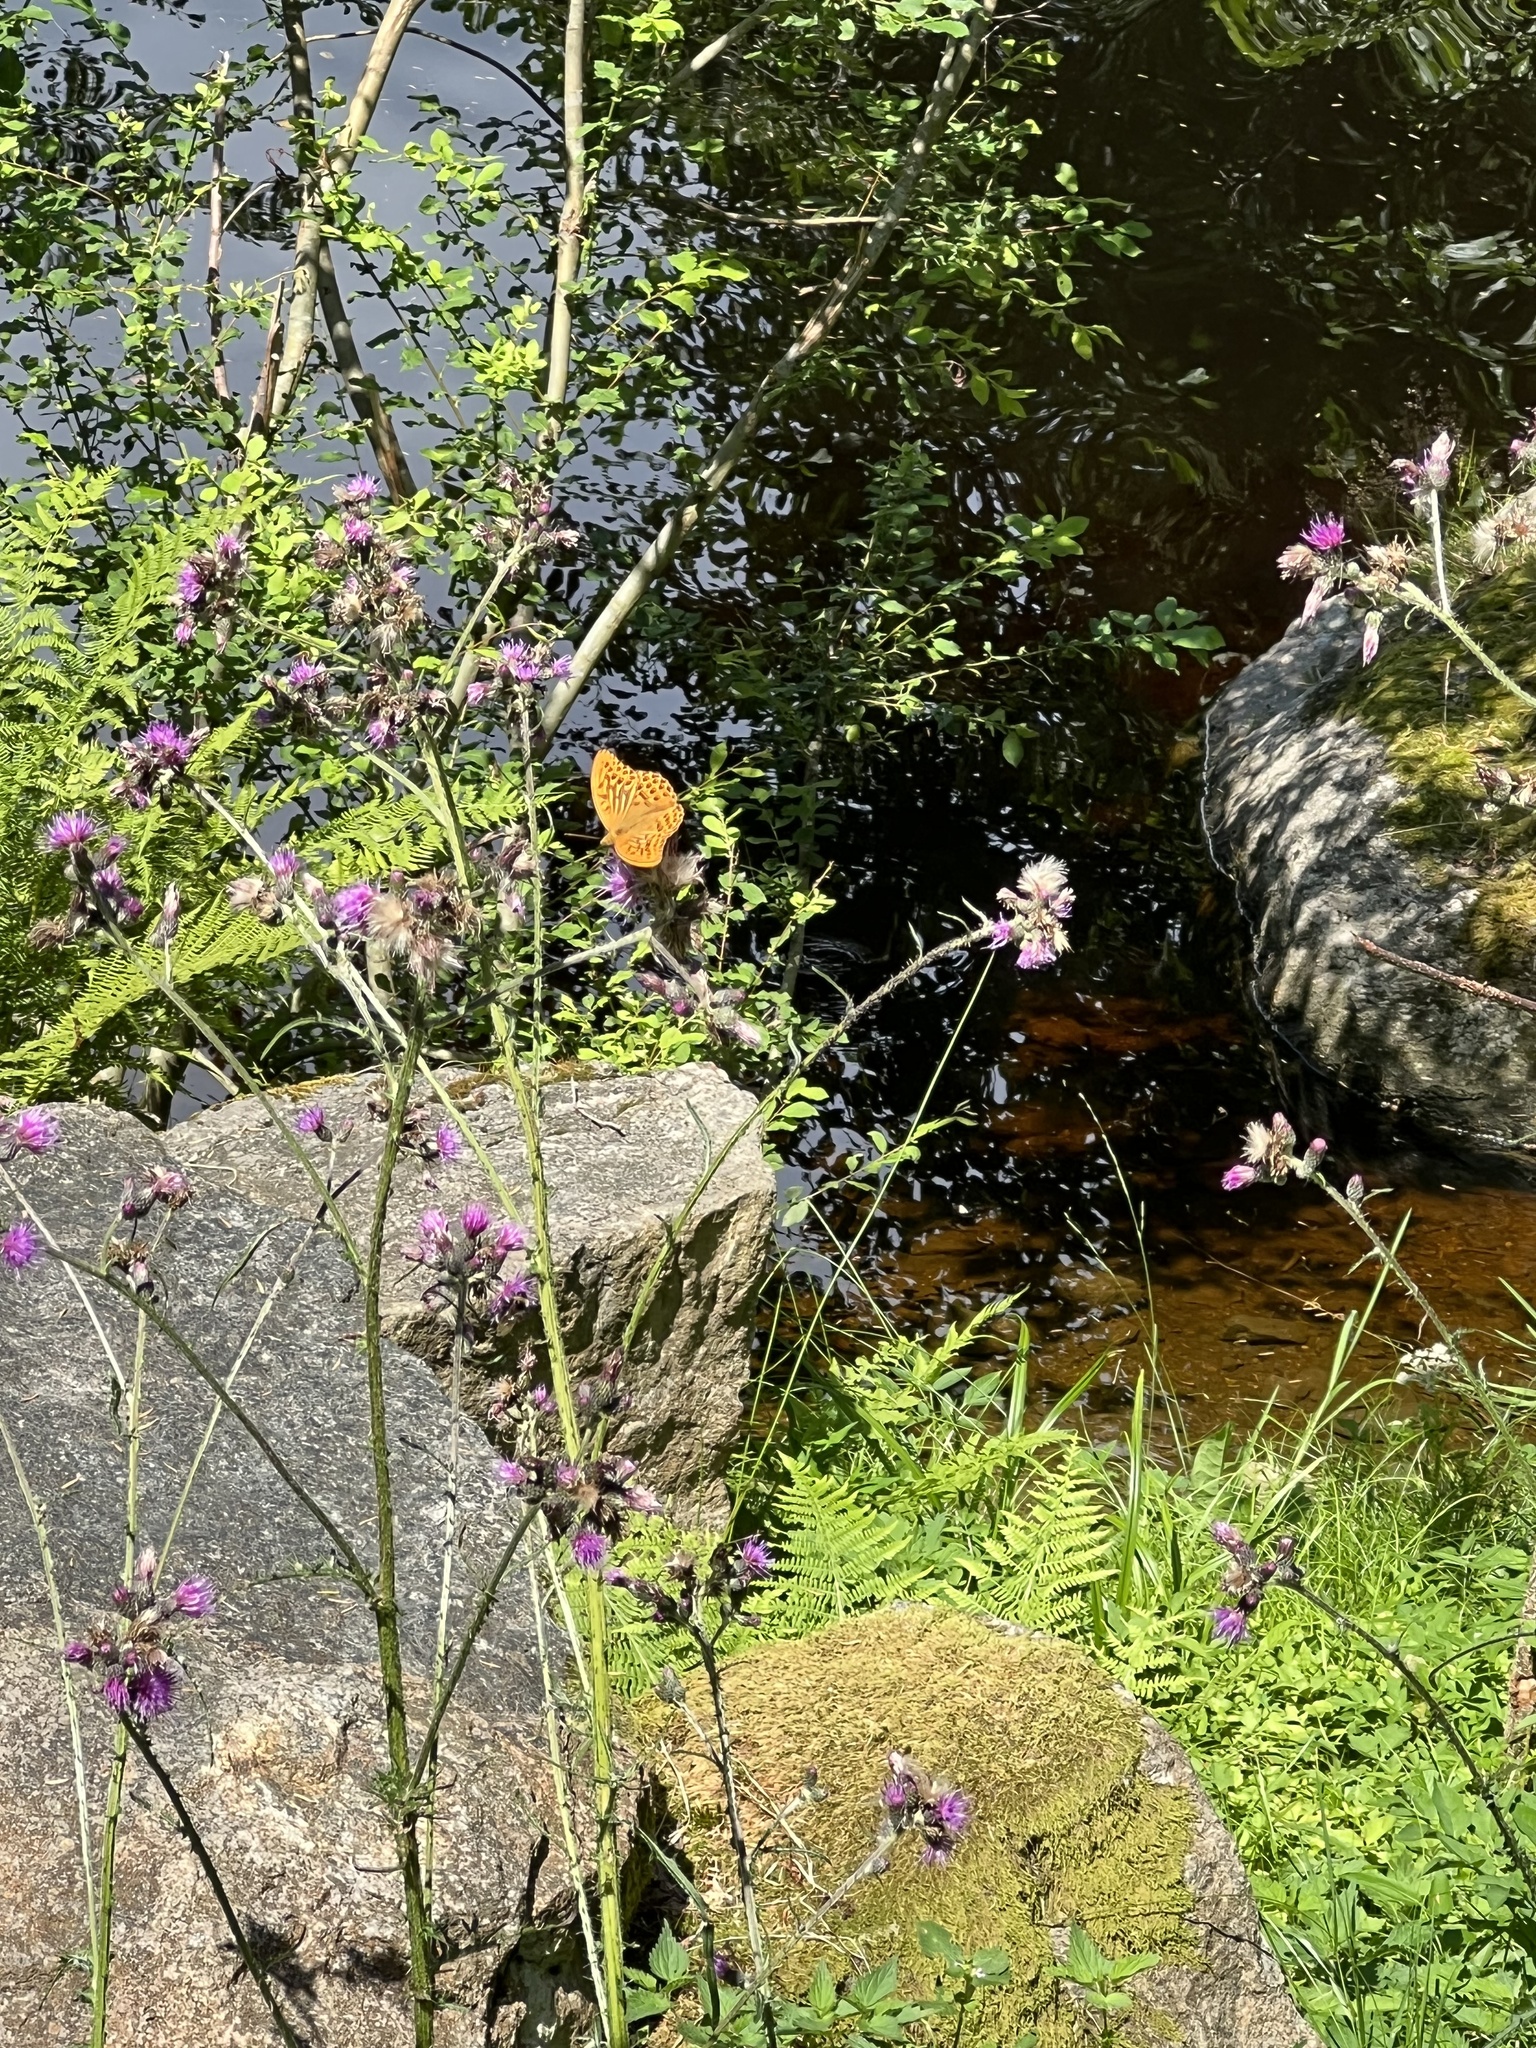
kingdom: Animalia
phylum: Arthropoda
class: Insecta
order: Lepidoptera
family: Nymphalidae
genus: Argynnis
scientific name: Argynnis paphia
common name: Silver-washed fritillary
